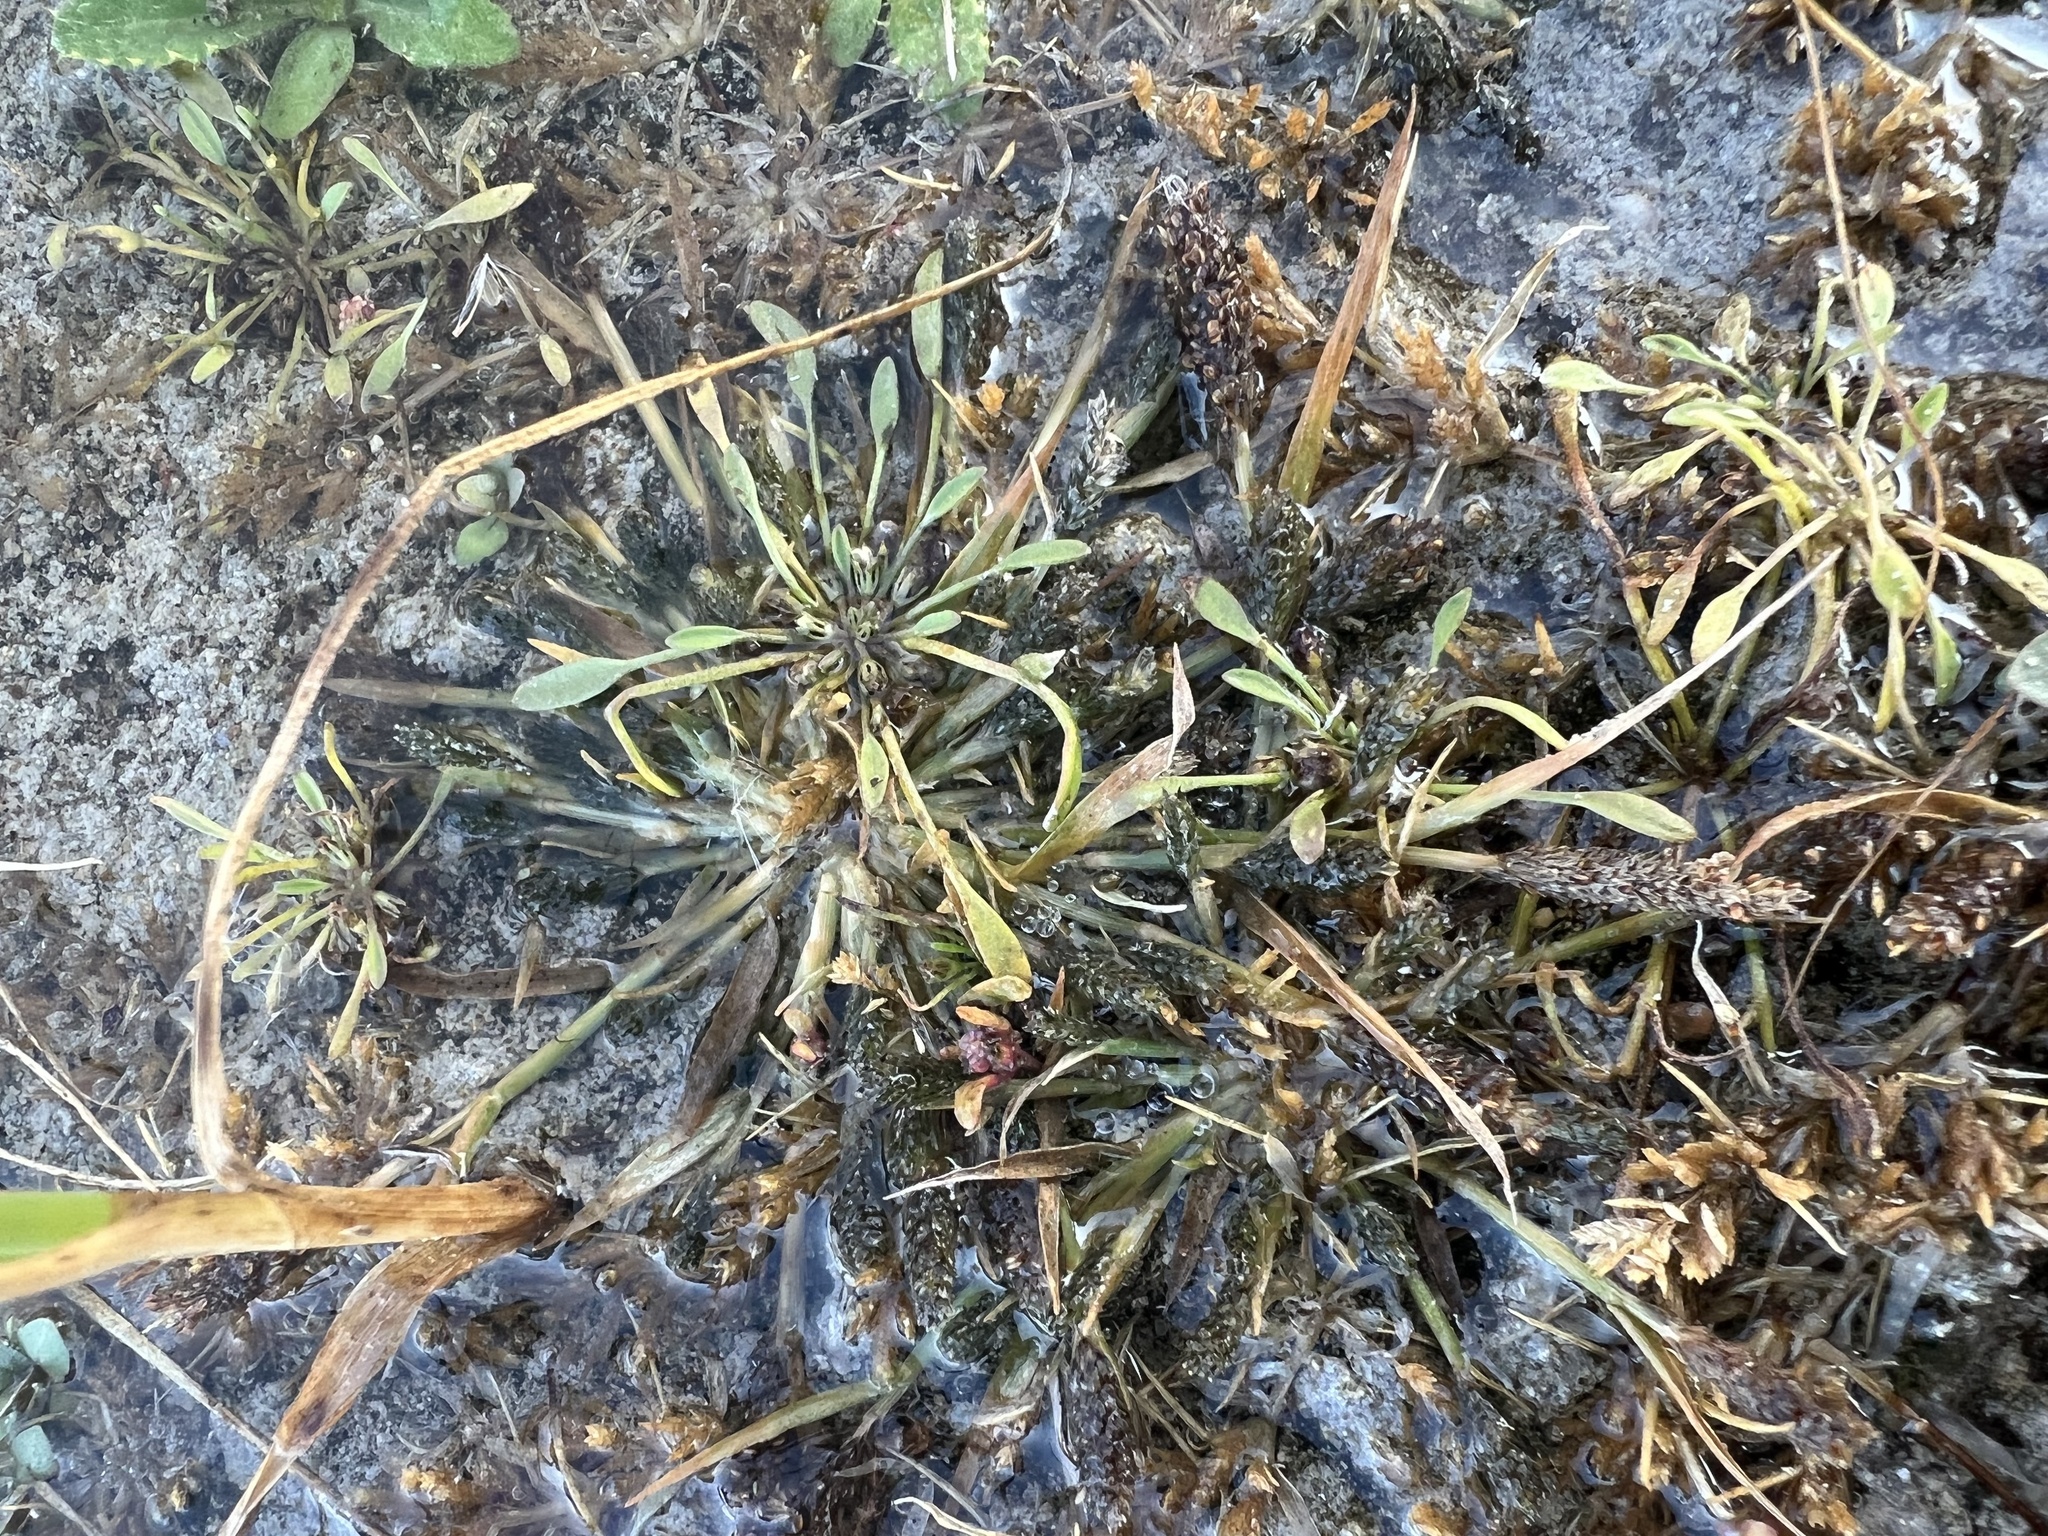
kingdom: Plantae
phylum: Tracheophyta
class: Liliopsida
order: Poales
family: Poaceae
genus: Sporobolus
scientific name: Sporobolus alopecuroides
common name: Foxtail pricklegrass
